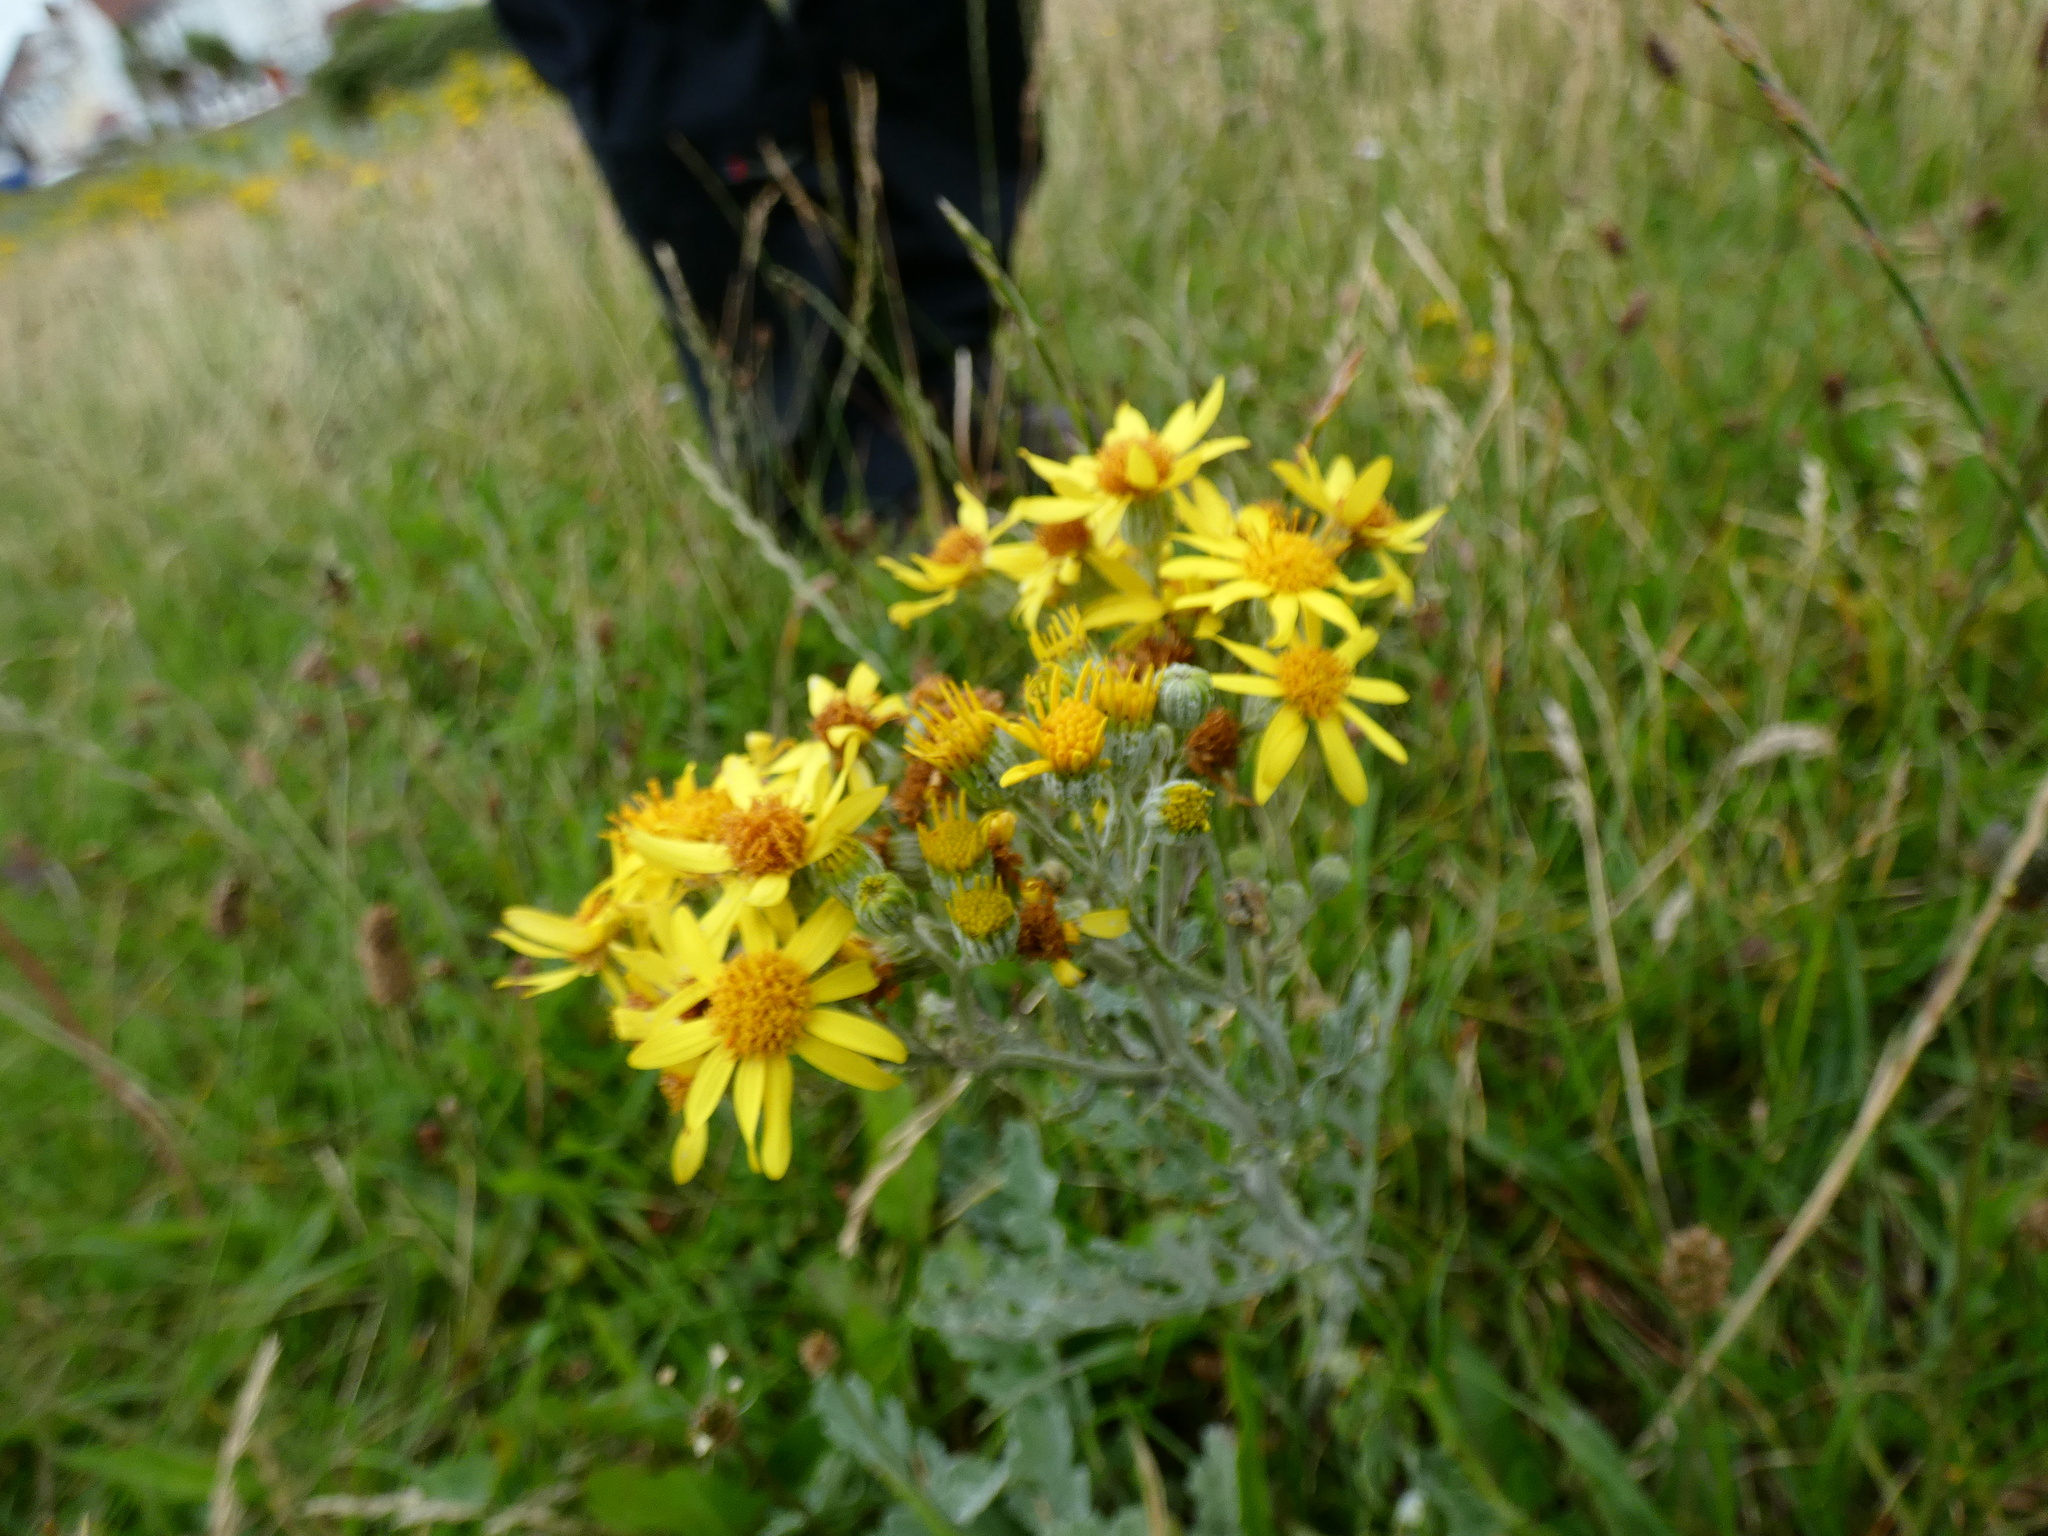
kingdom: Plantae
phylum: Tracheophyta
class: Magnoliopsida
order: Asterales
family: Asteraceae
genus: Jacobaea
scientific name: Jacobaea albescens
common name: Hybrid ragwort
